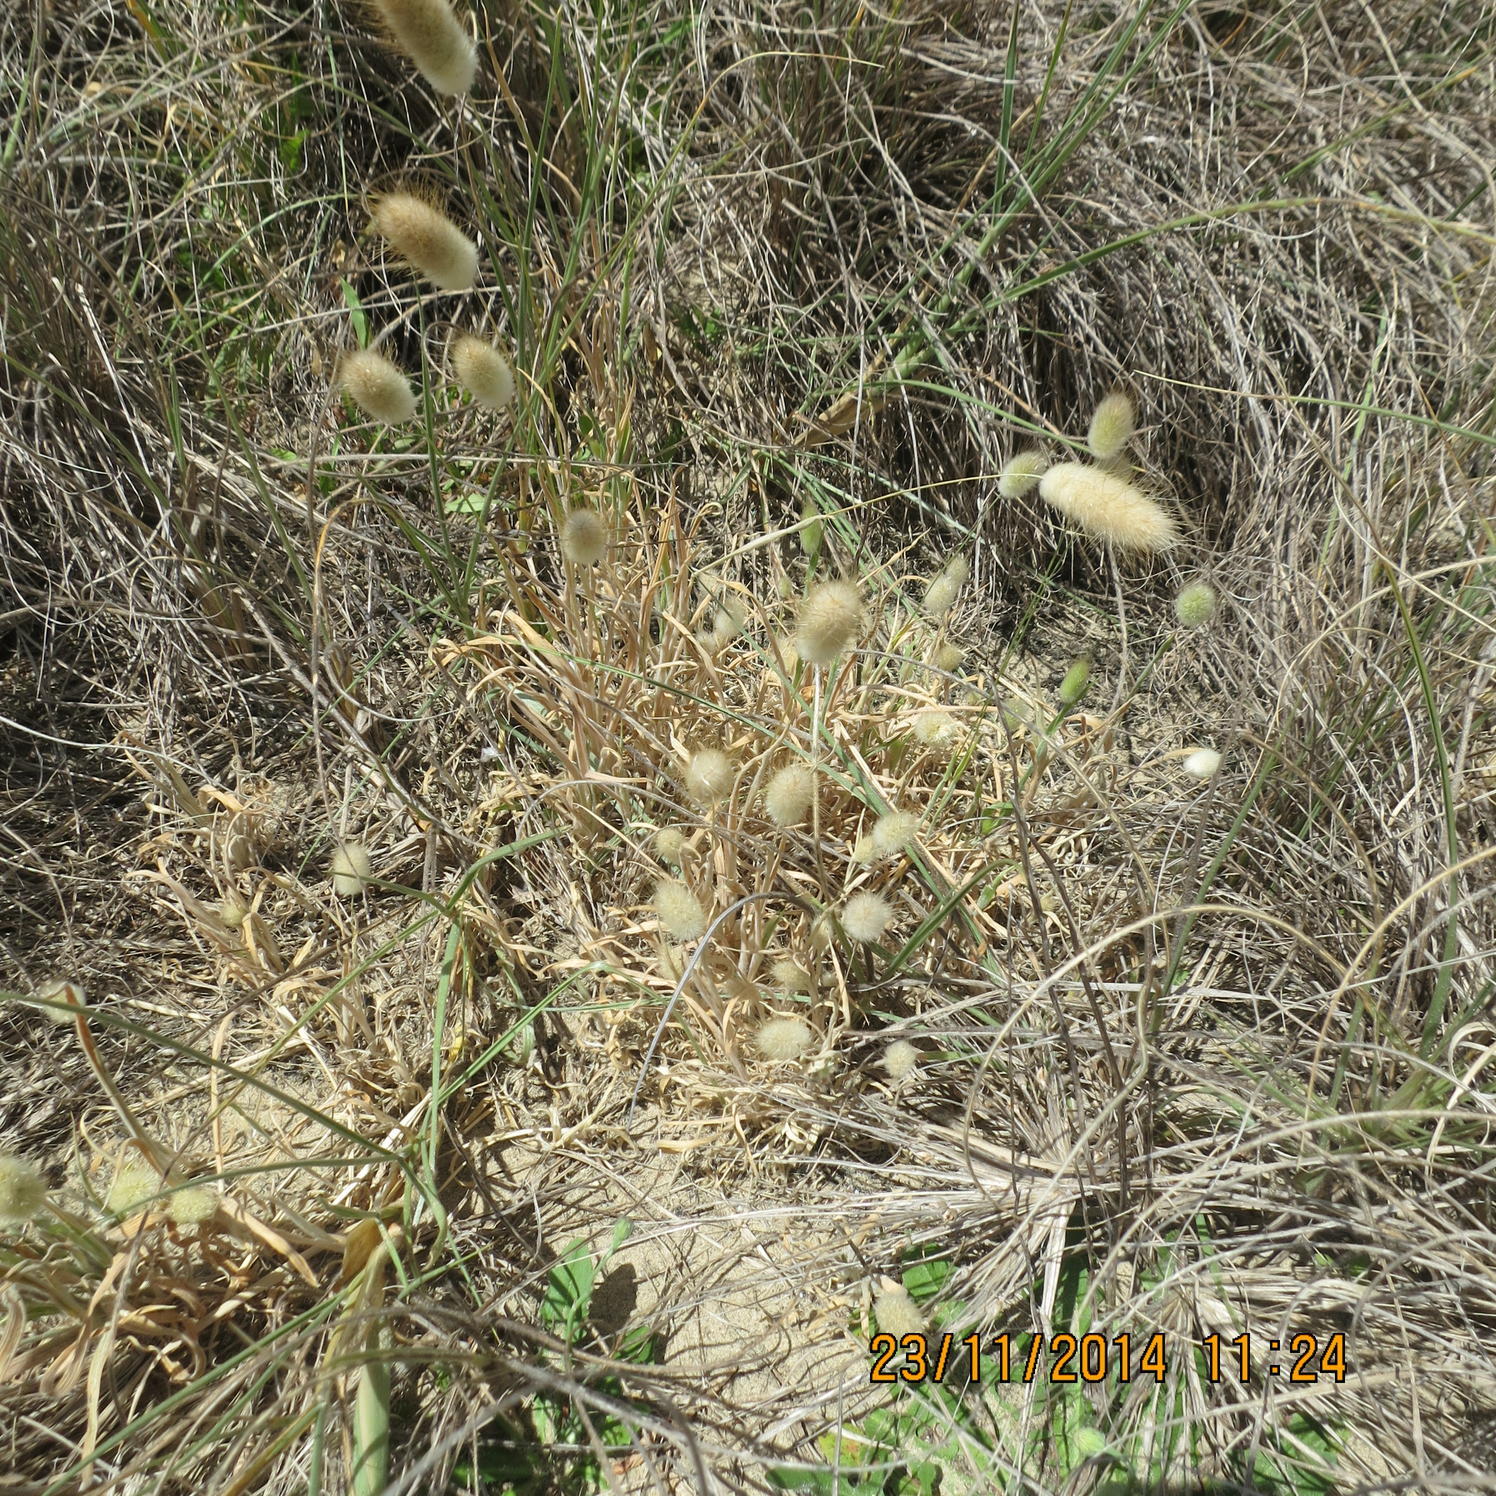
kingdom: Plantae
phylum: Tracheophyta
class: Liliopsida
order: Poales
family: Poaceae
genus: Lagurus
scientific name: Lagurus ovatus
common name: Hare's-tail
